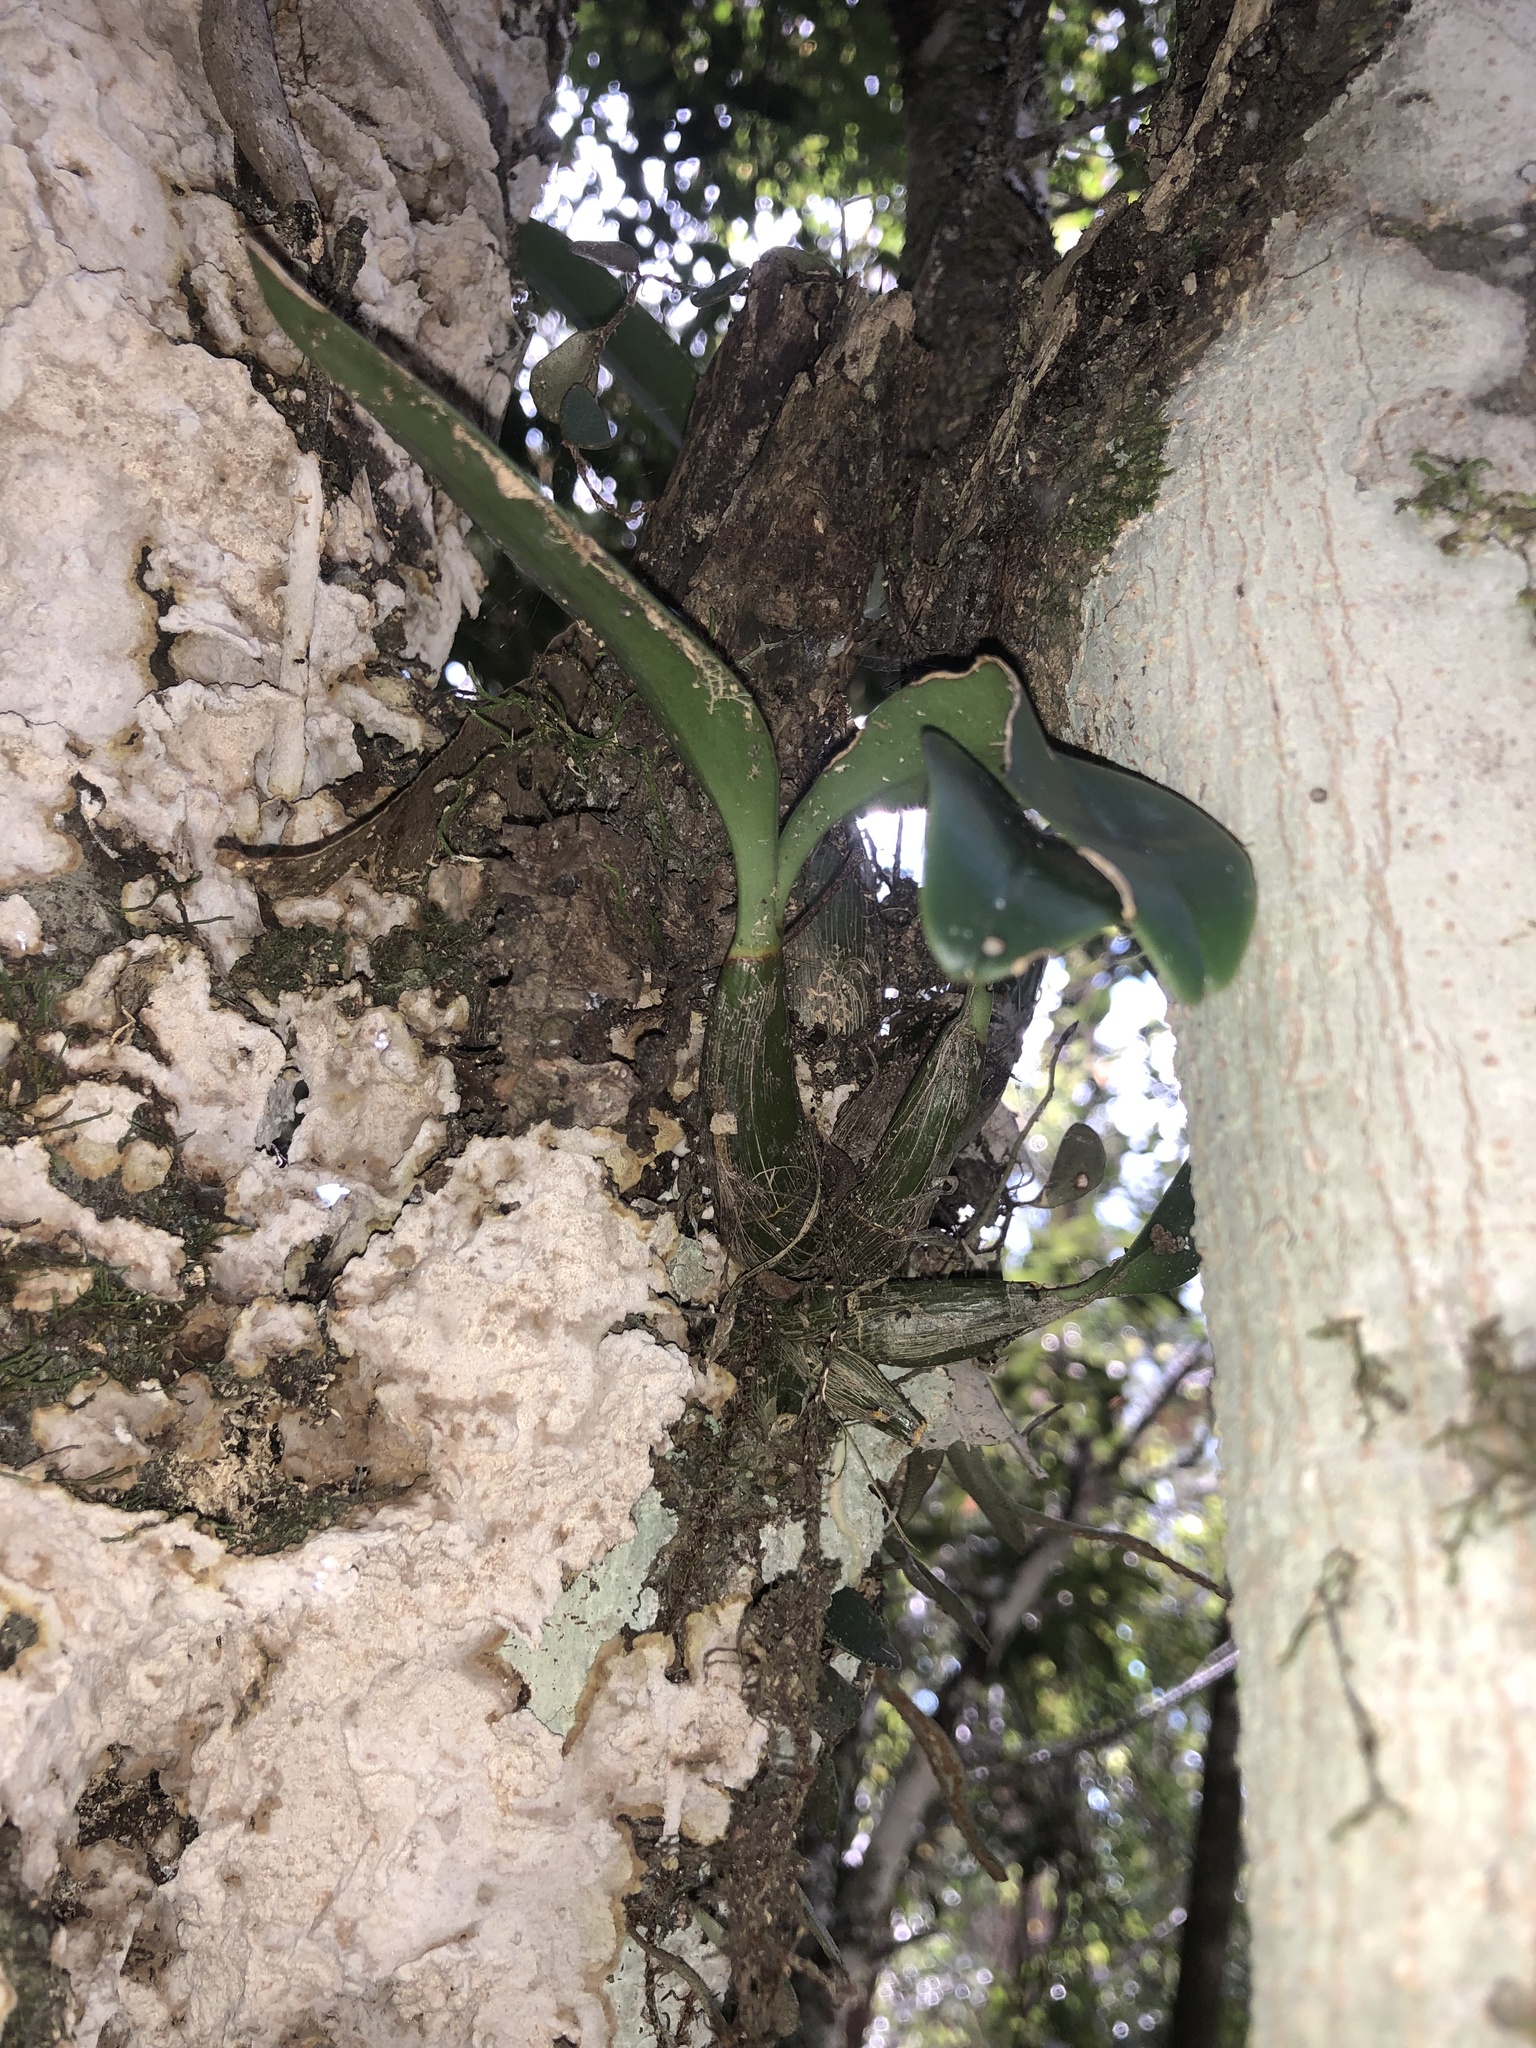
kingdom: Plantae
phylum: Tracheophyta
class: Liliopsida
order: Asparagales
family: Orchidaceae
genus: Dendrobium
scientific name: Dendrobium speciosum
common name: Rock-lily
